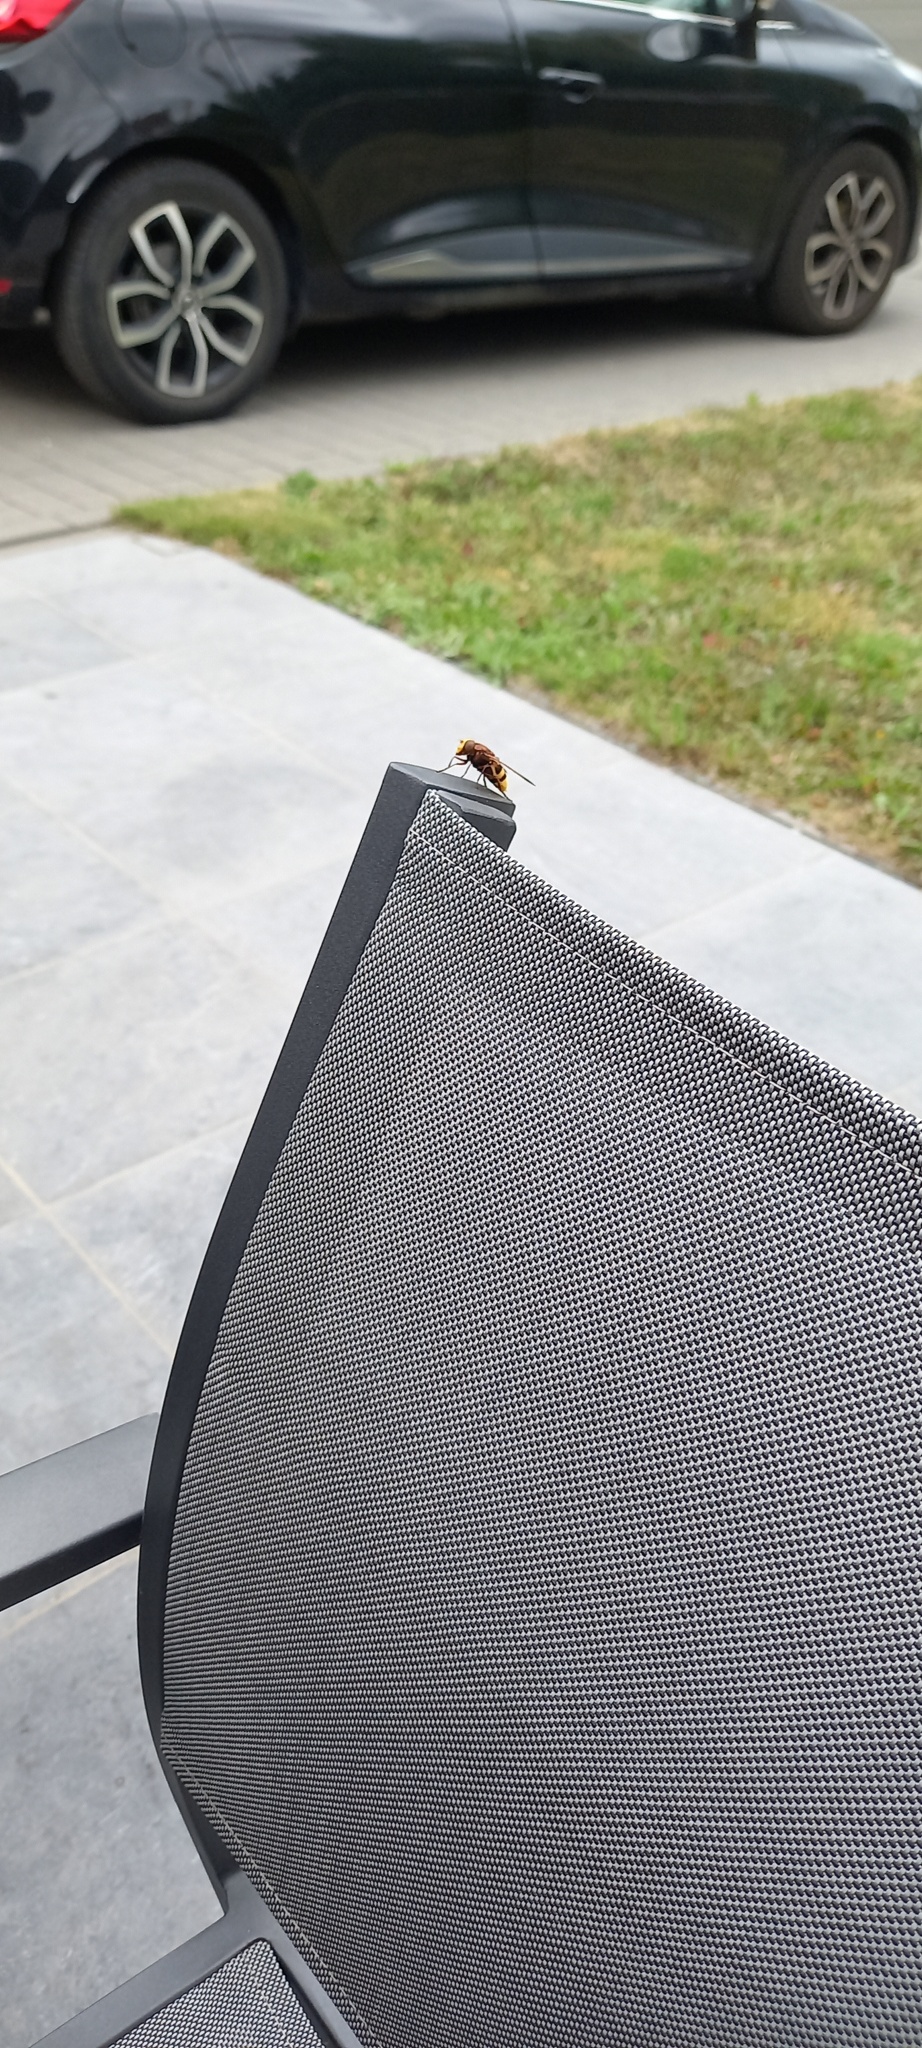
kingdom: Animalia
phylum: Arthropoda
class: Insecta
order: Diptera
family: Syrphidae
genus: Volucella
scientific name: Volucella zonaria
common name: Hornet hoverfly
